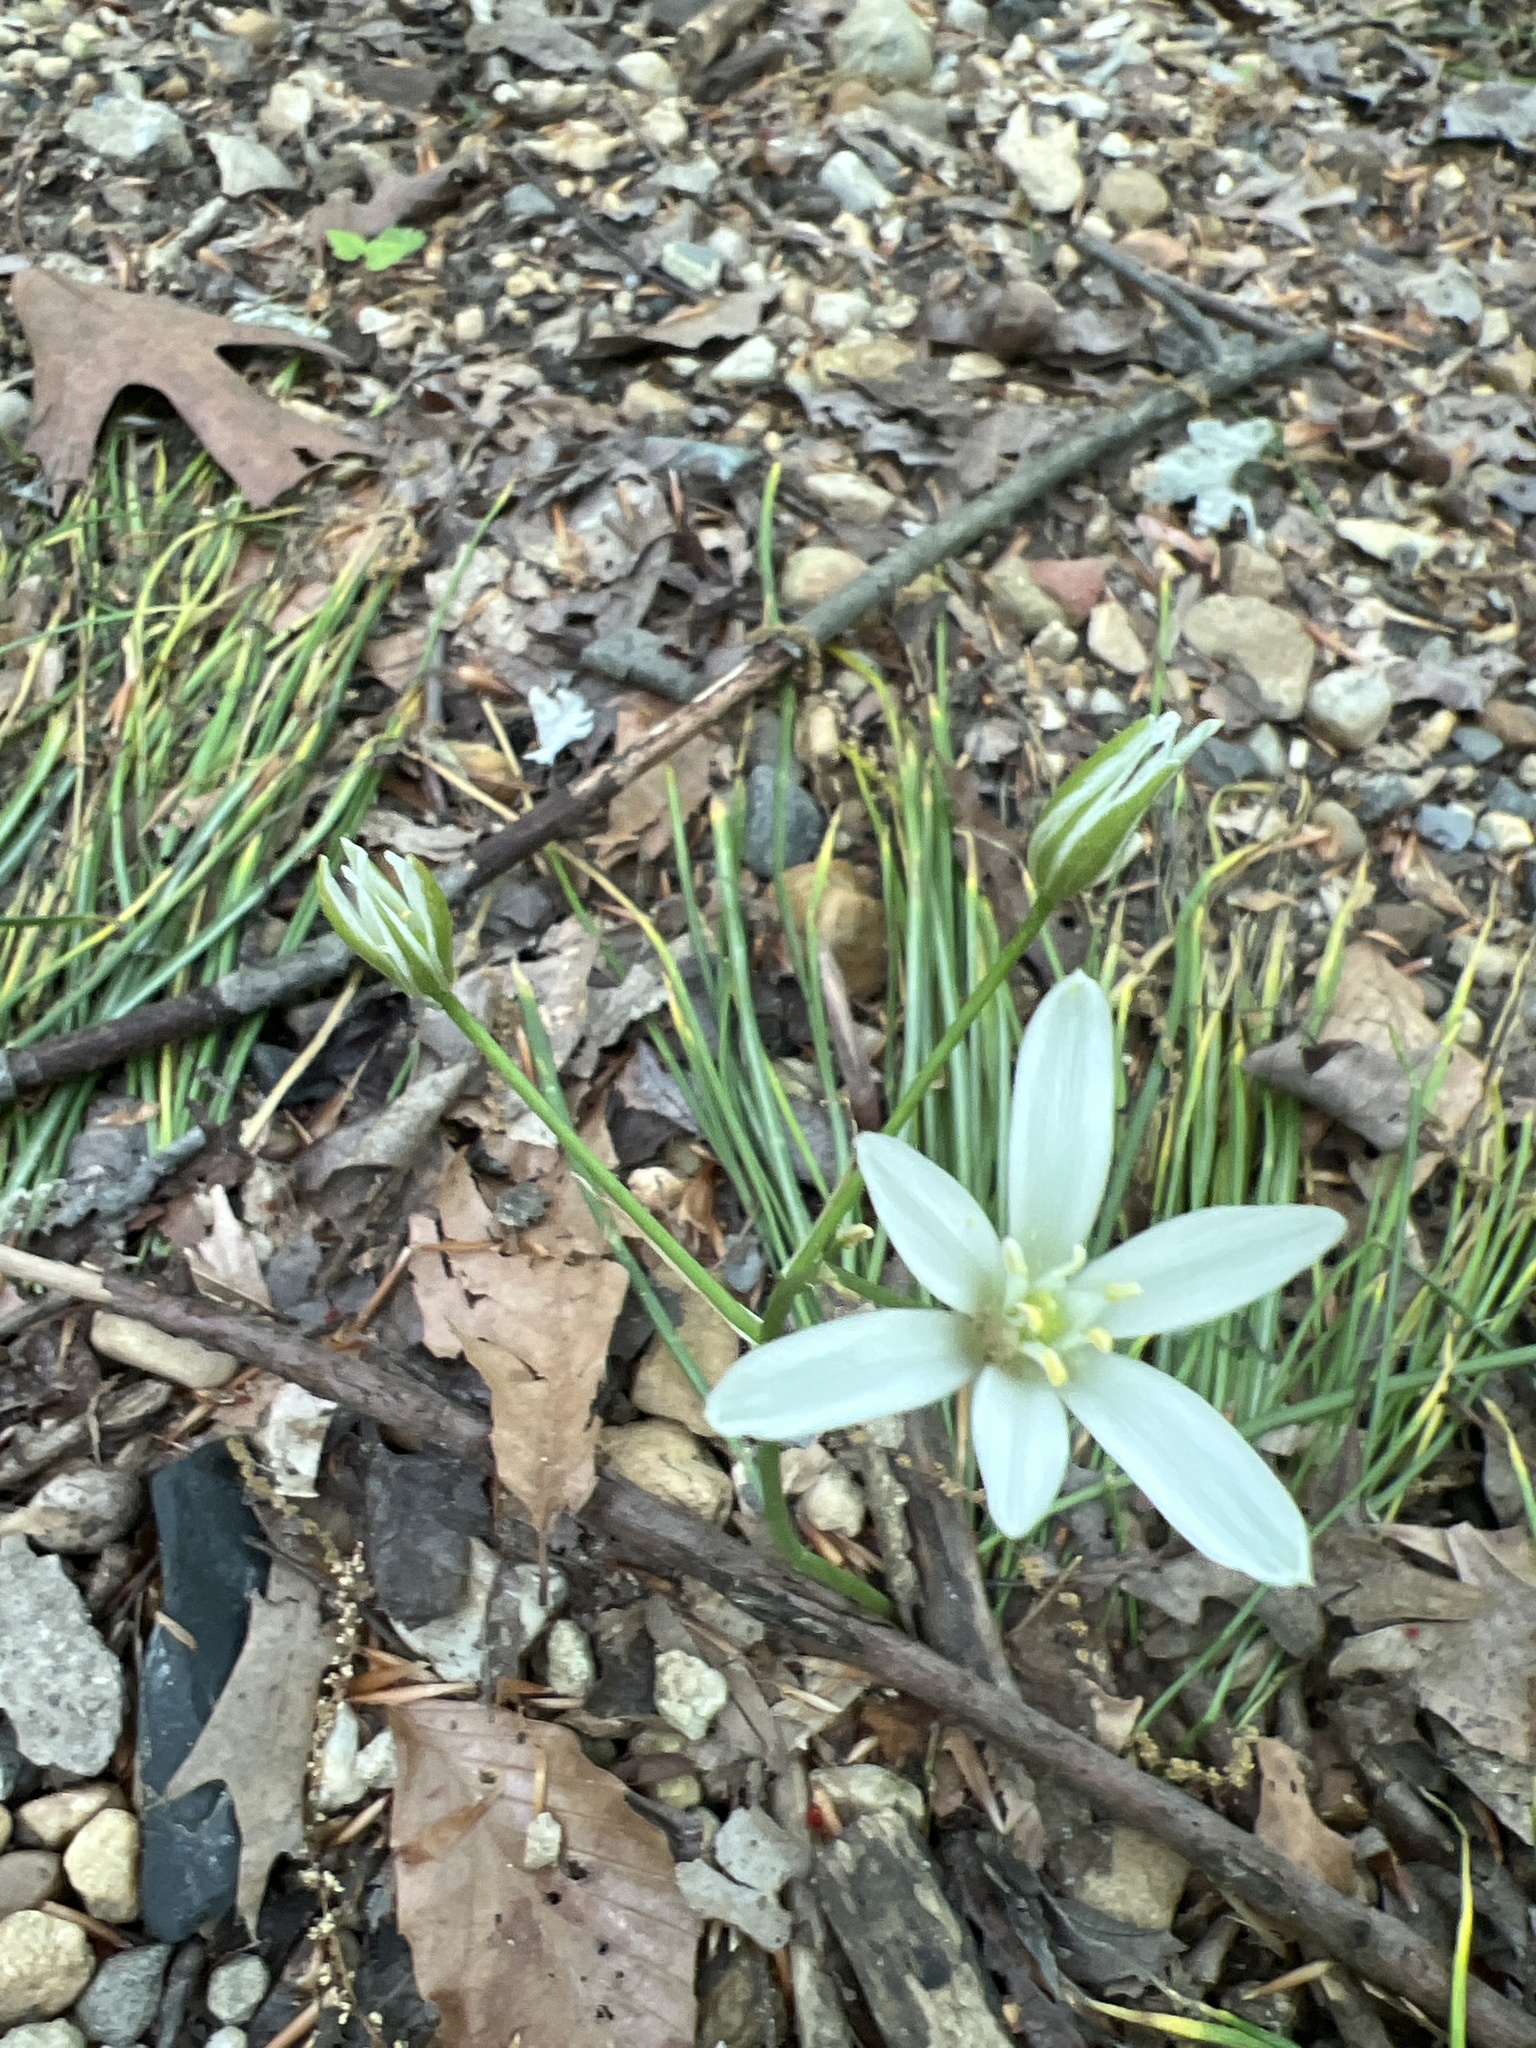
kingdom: Plantae
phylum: Tracheophyta
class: Liliopsida
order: Asparagales
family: Asparagaceae
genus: Ornithogalum
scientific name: Ornithogalum umbellatum
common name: Garden star-of-bethlehem
